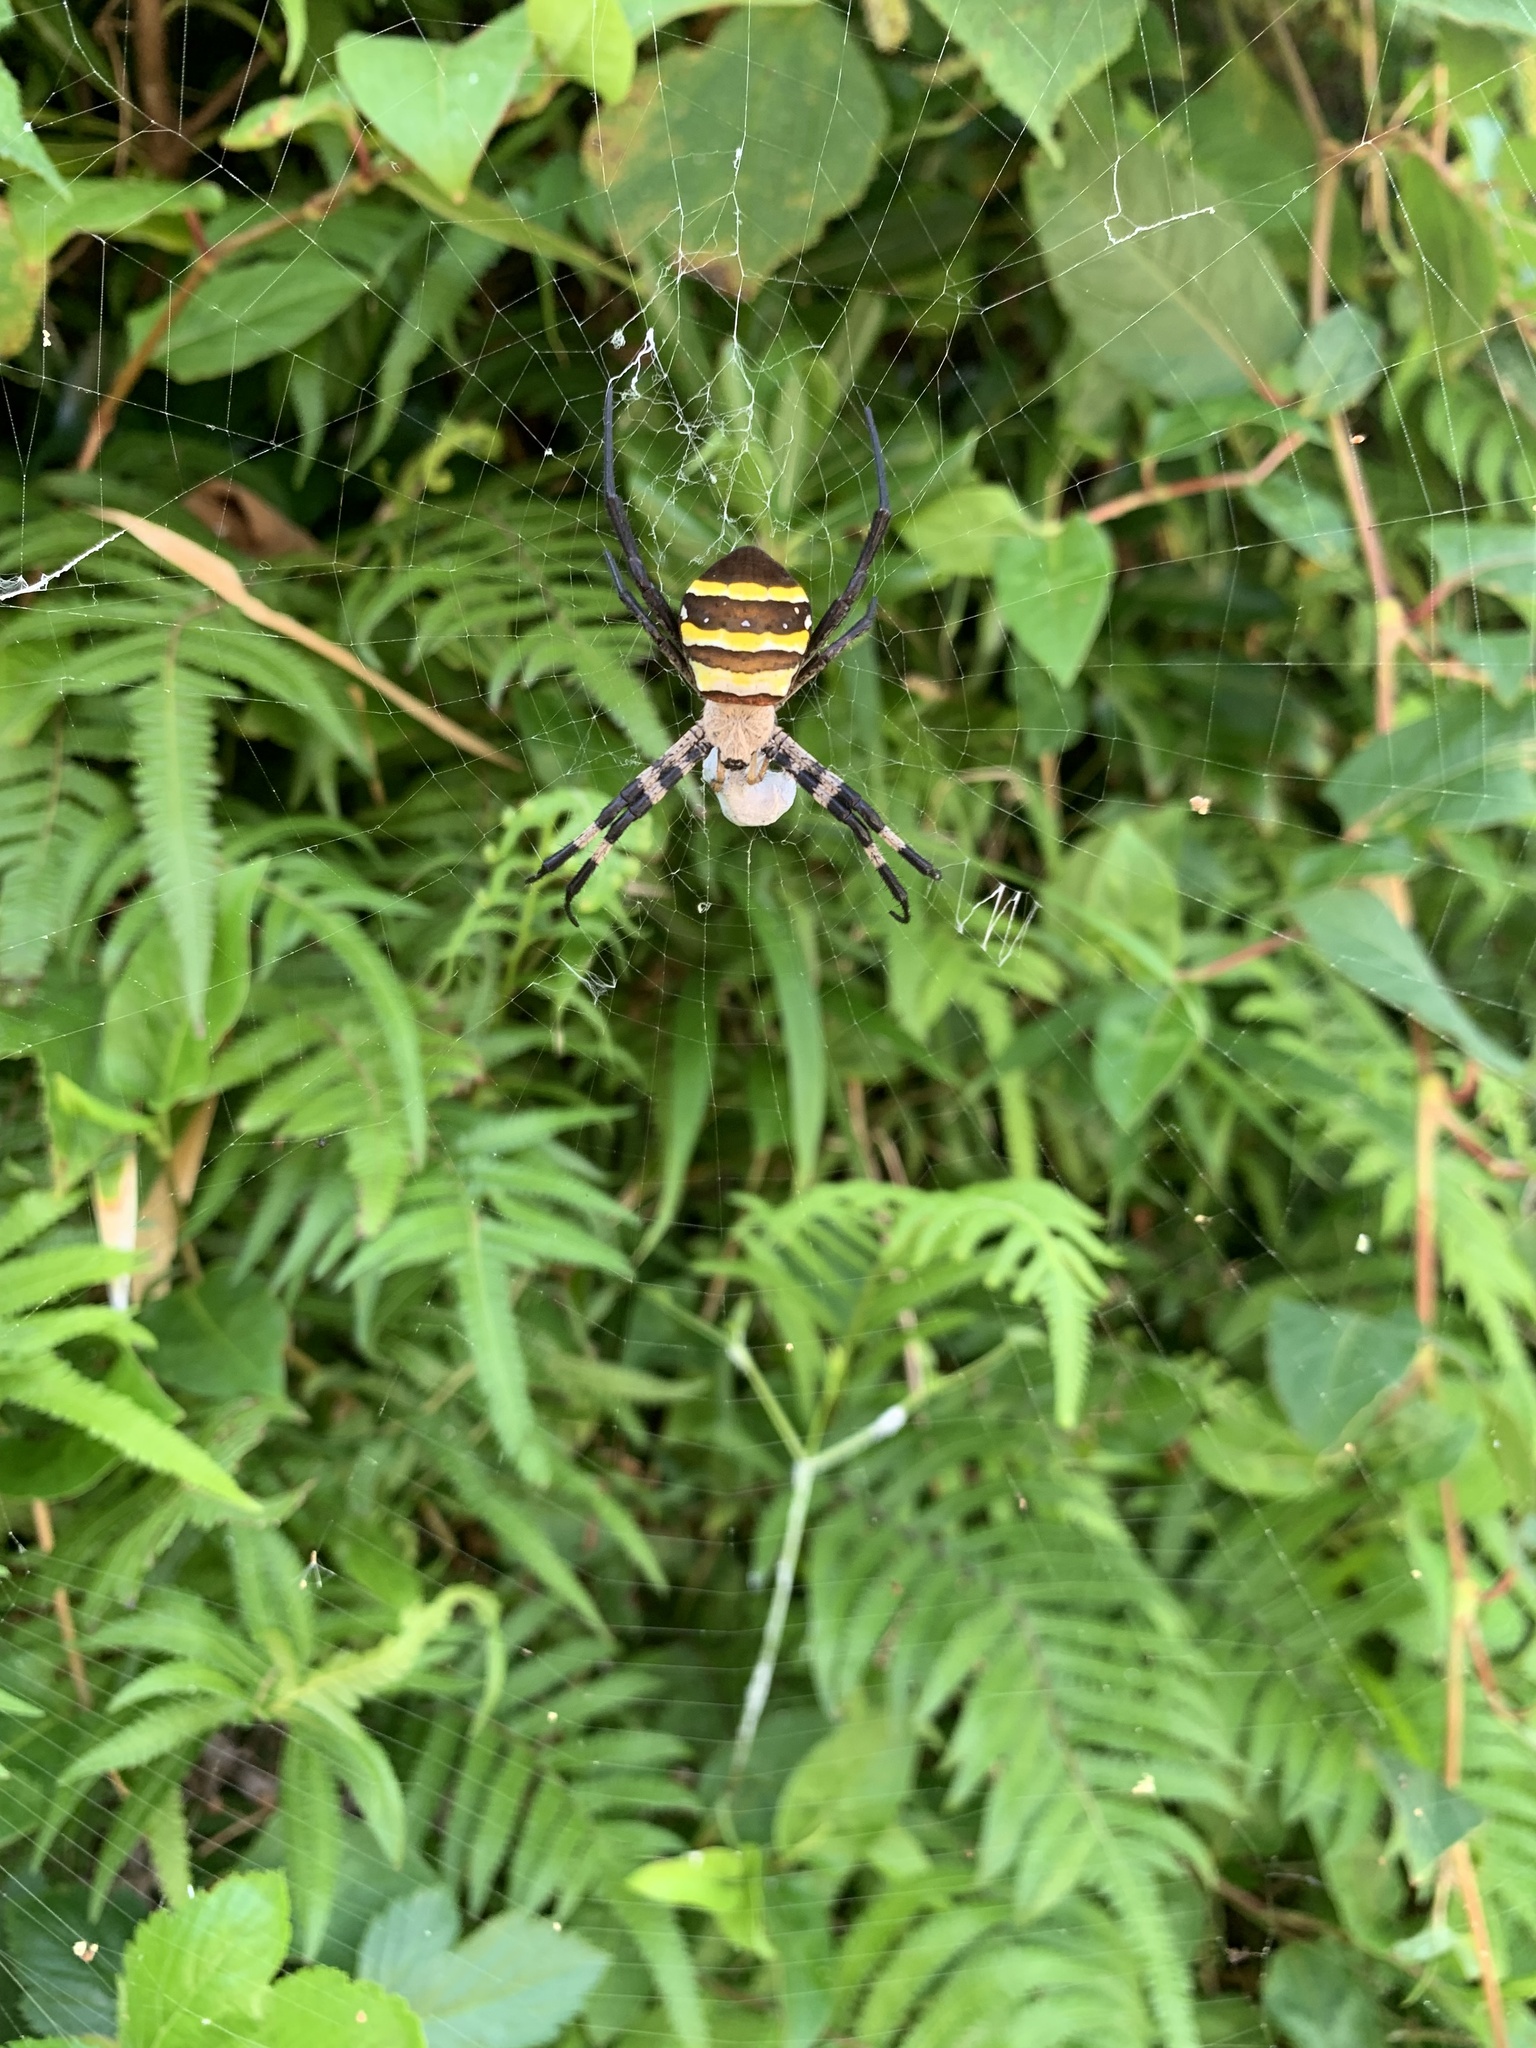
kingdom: Animalia
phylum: Arthropoda
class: Arachnida
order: Araneae
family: Araneidae
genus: Argiope
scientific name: Argiope amoena
